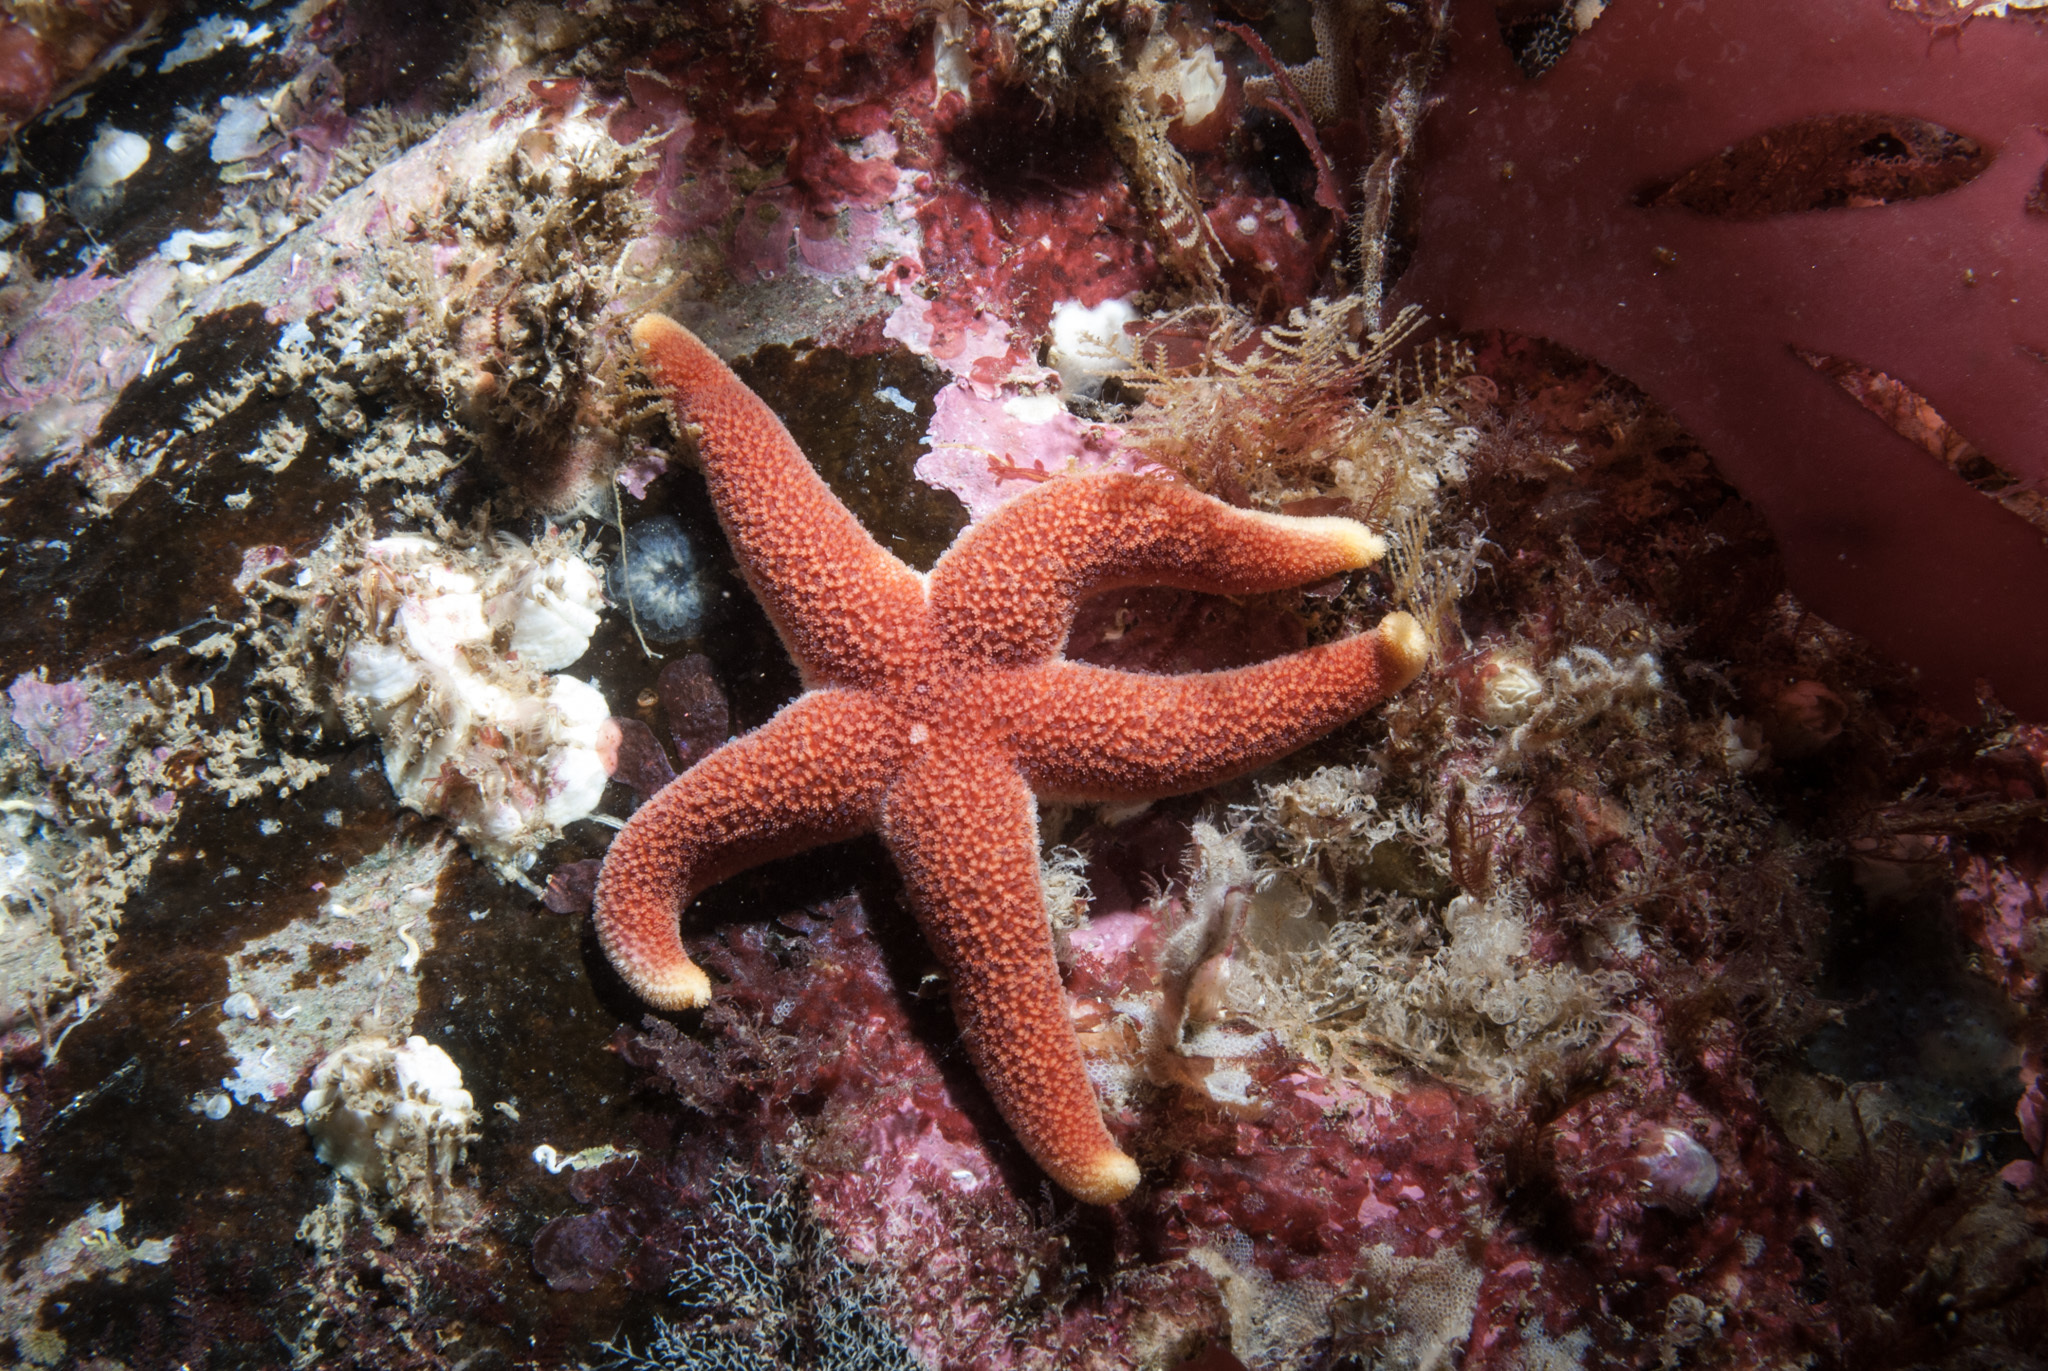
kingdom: Animalia
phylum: Echinodermata
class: Asteroidea
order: Spinulosida
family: Echinasteridae
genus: Henricia
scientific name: Henricia oculata
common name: Bloody henry starfish
